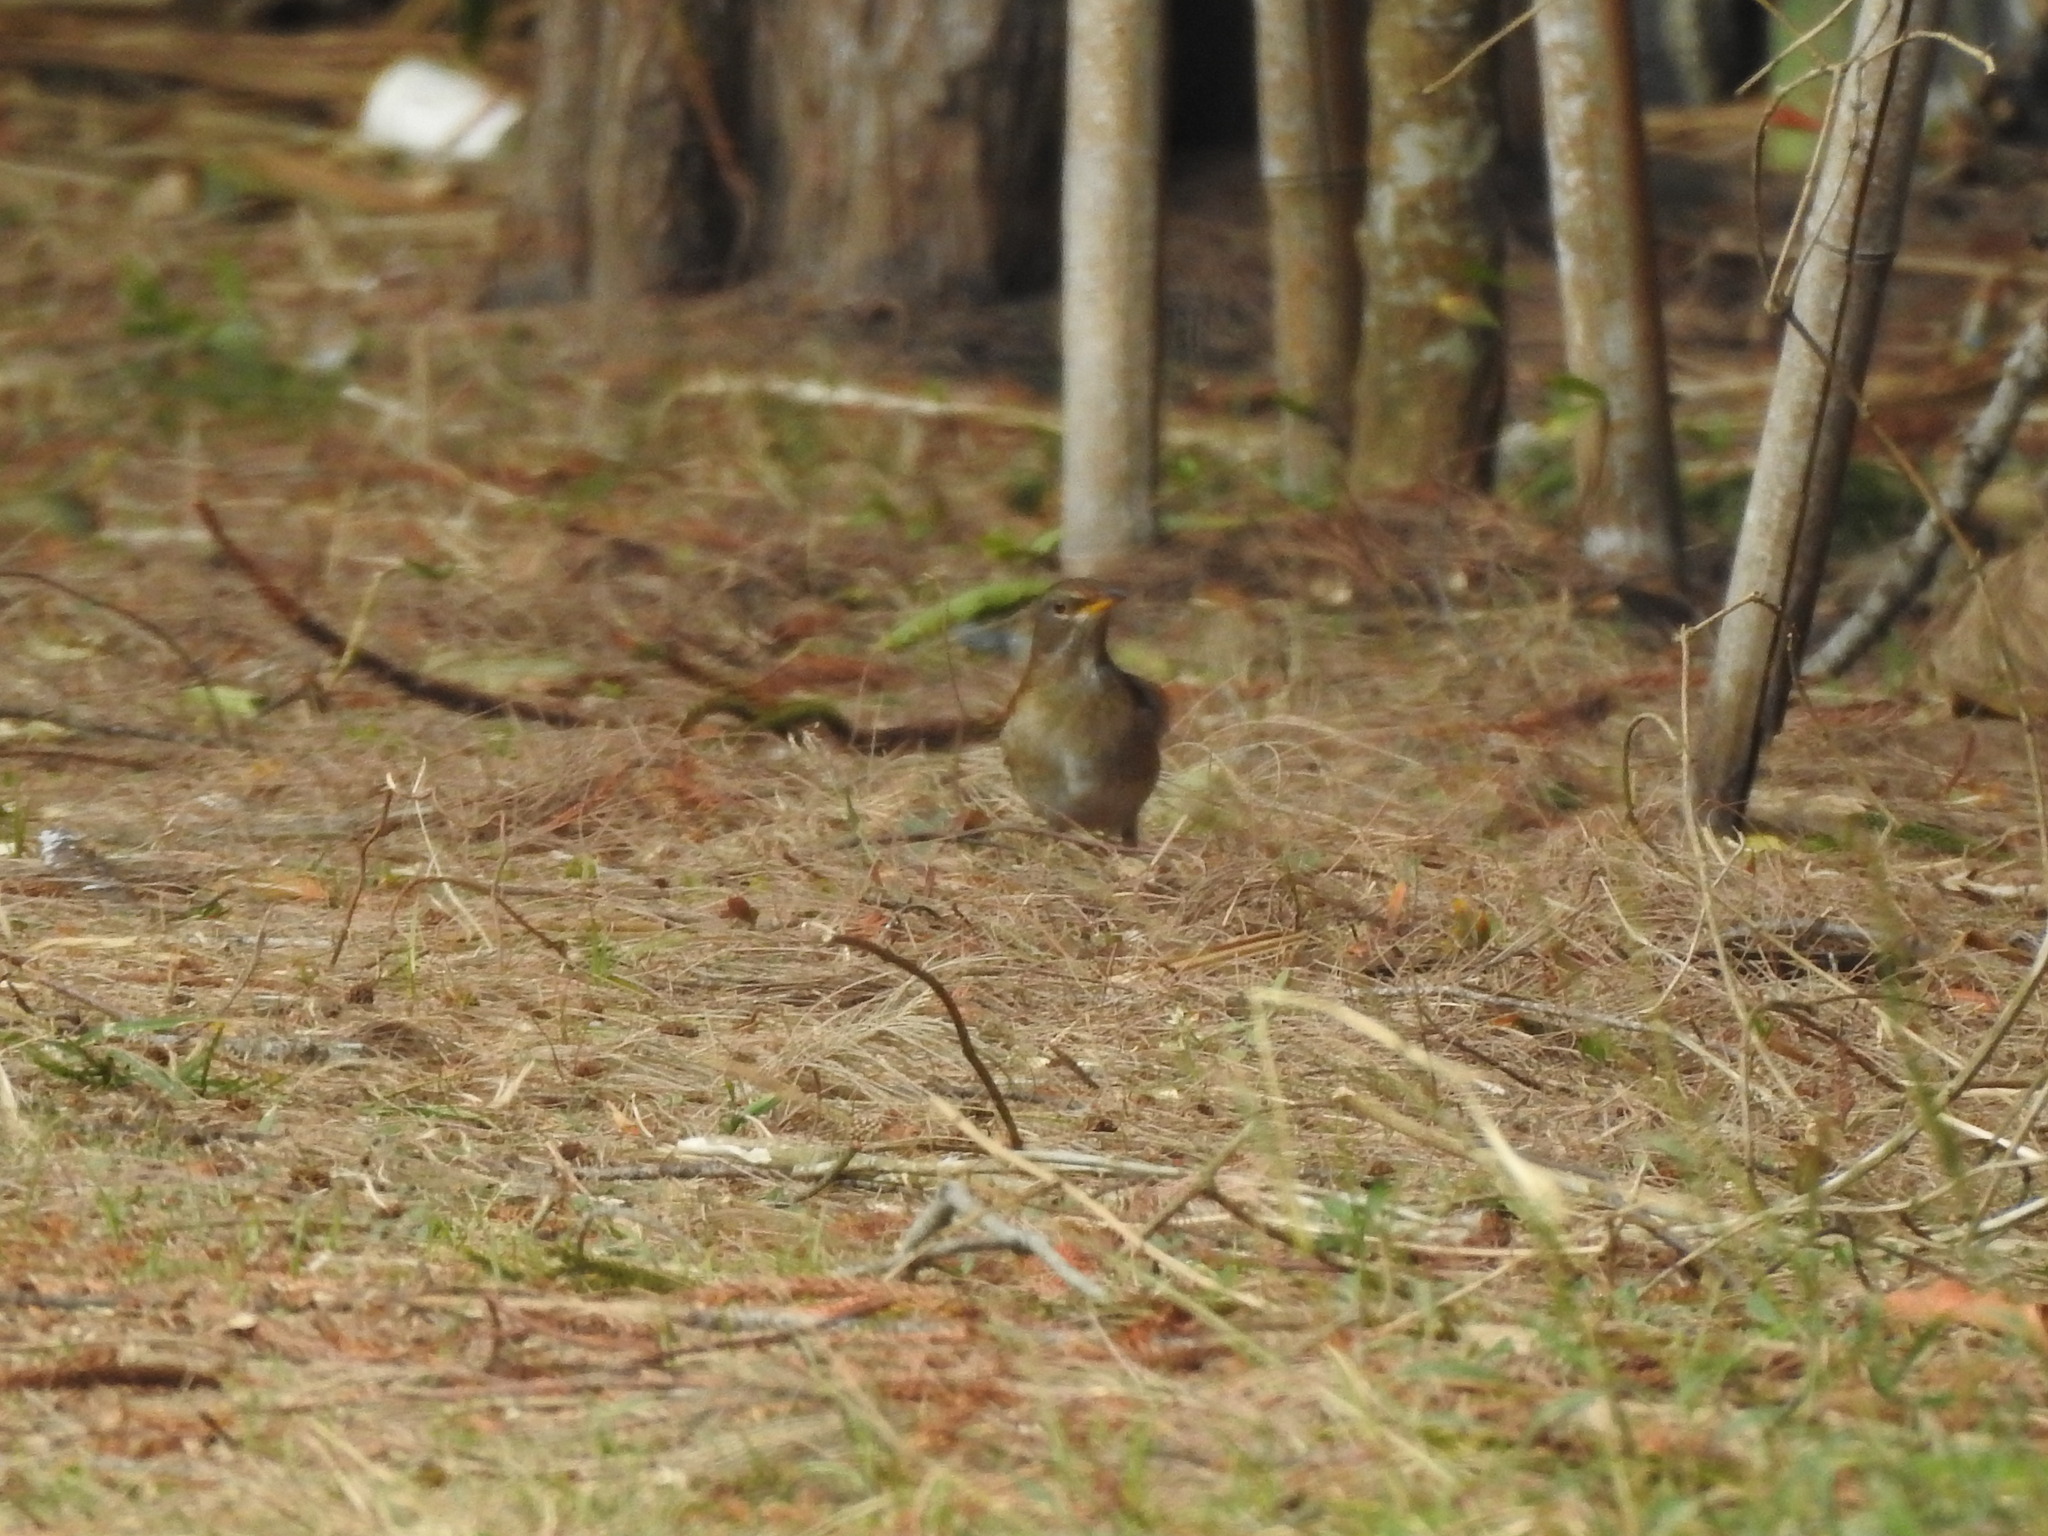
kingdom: Animalia
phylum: Chordata
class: Aves
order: Passeriformes
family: Turdidae
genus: Turdus
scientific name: Turdus pallidus
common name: Pale thrush
